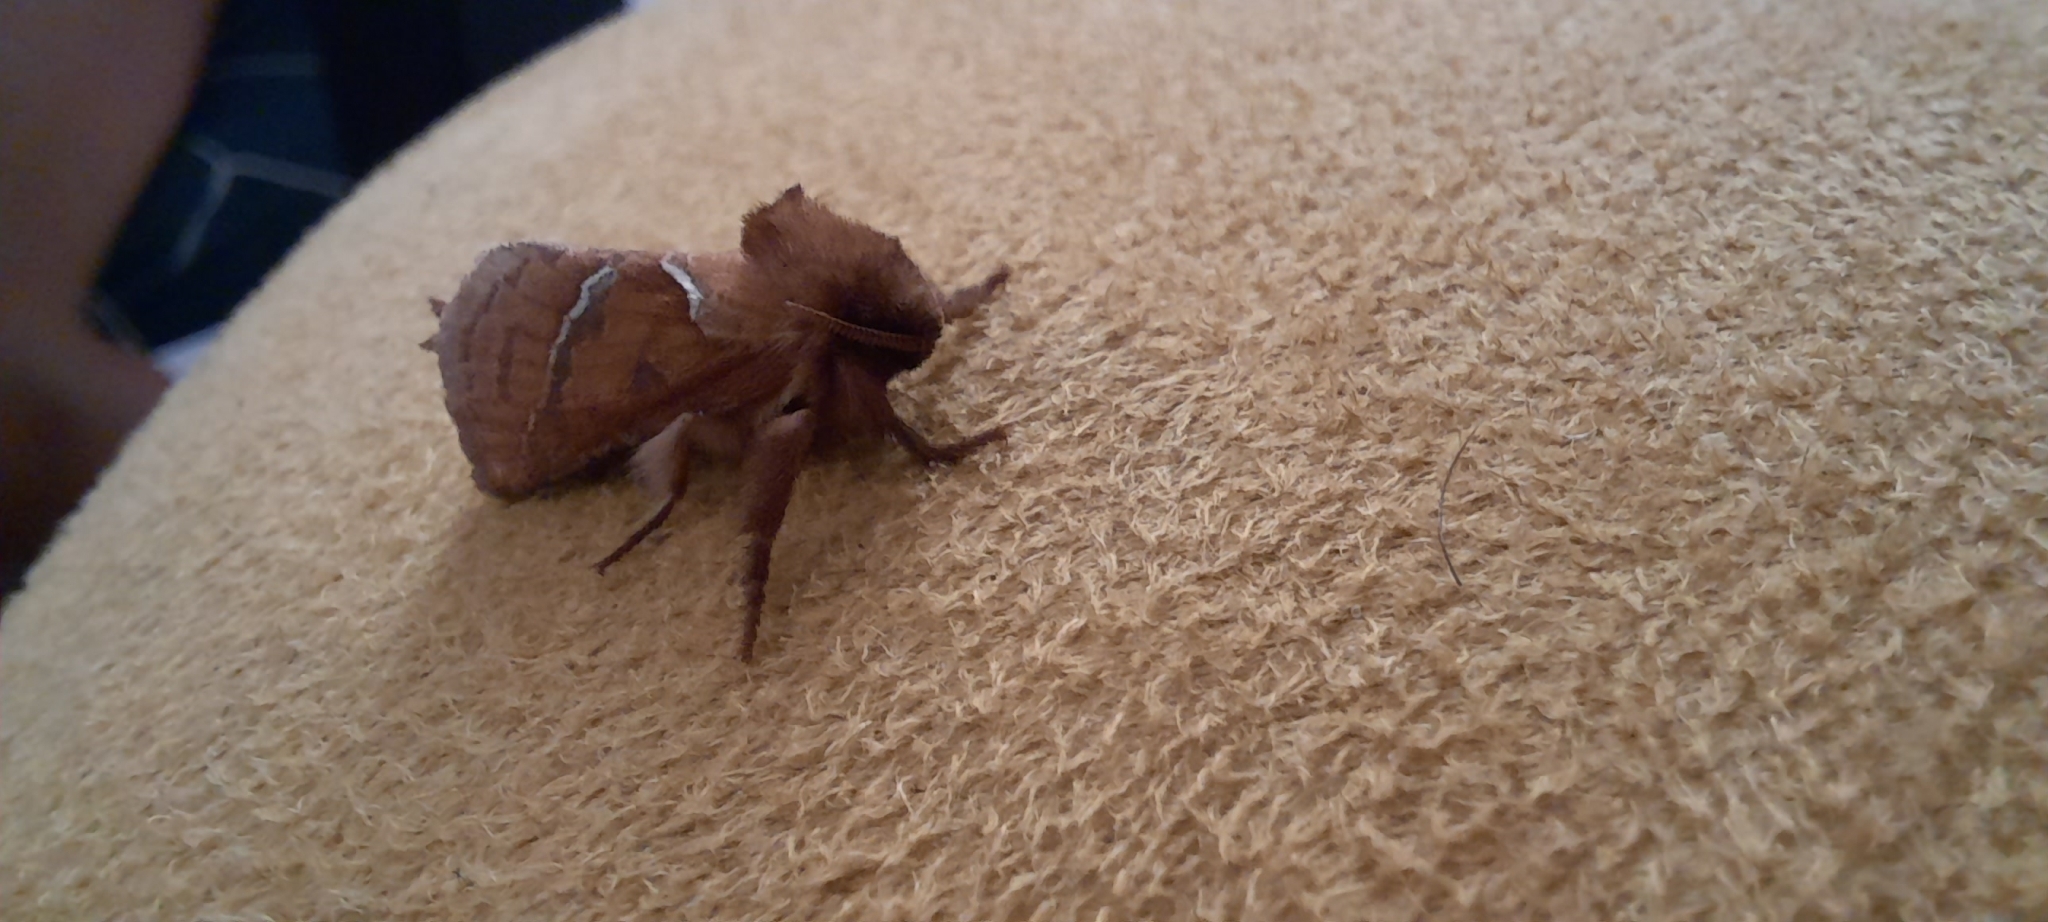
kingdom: Animalia
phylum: Arthropoda
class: Insecta
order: Lepidoptera
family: Hepialidae
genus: Triodia
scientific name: Triodia sylvina
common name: Orange swift
